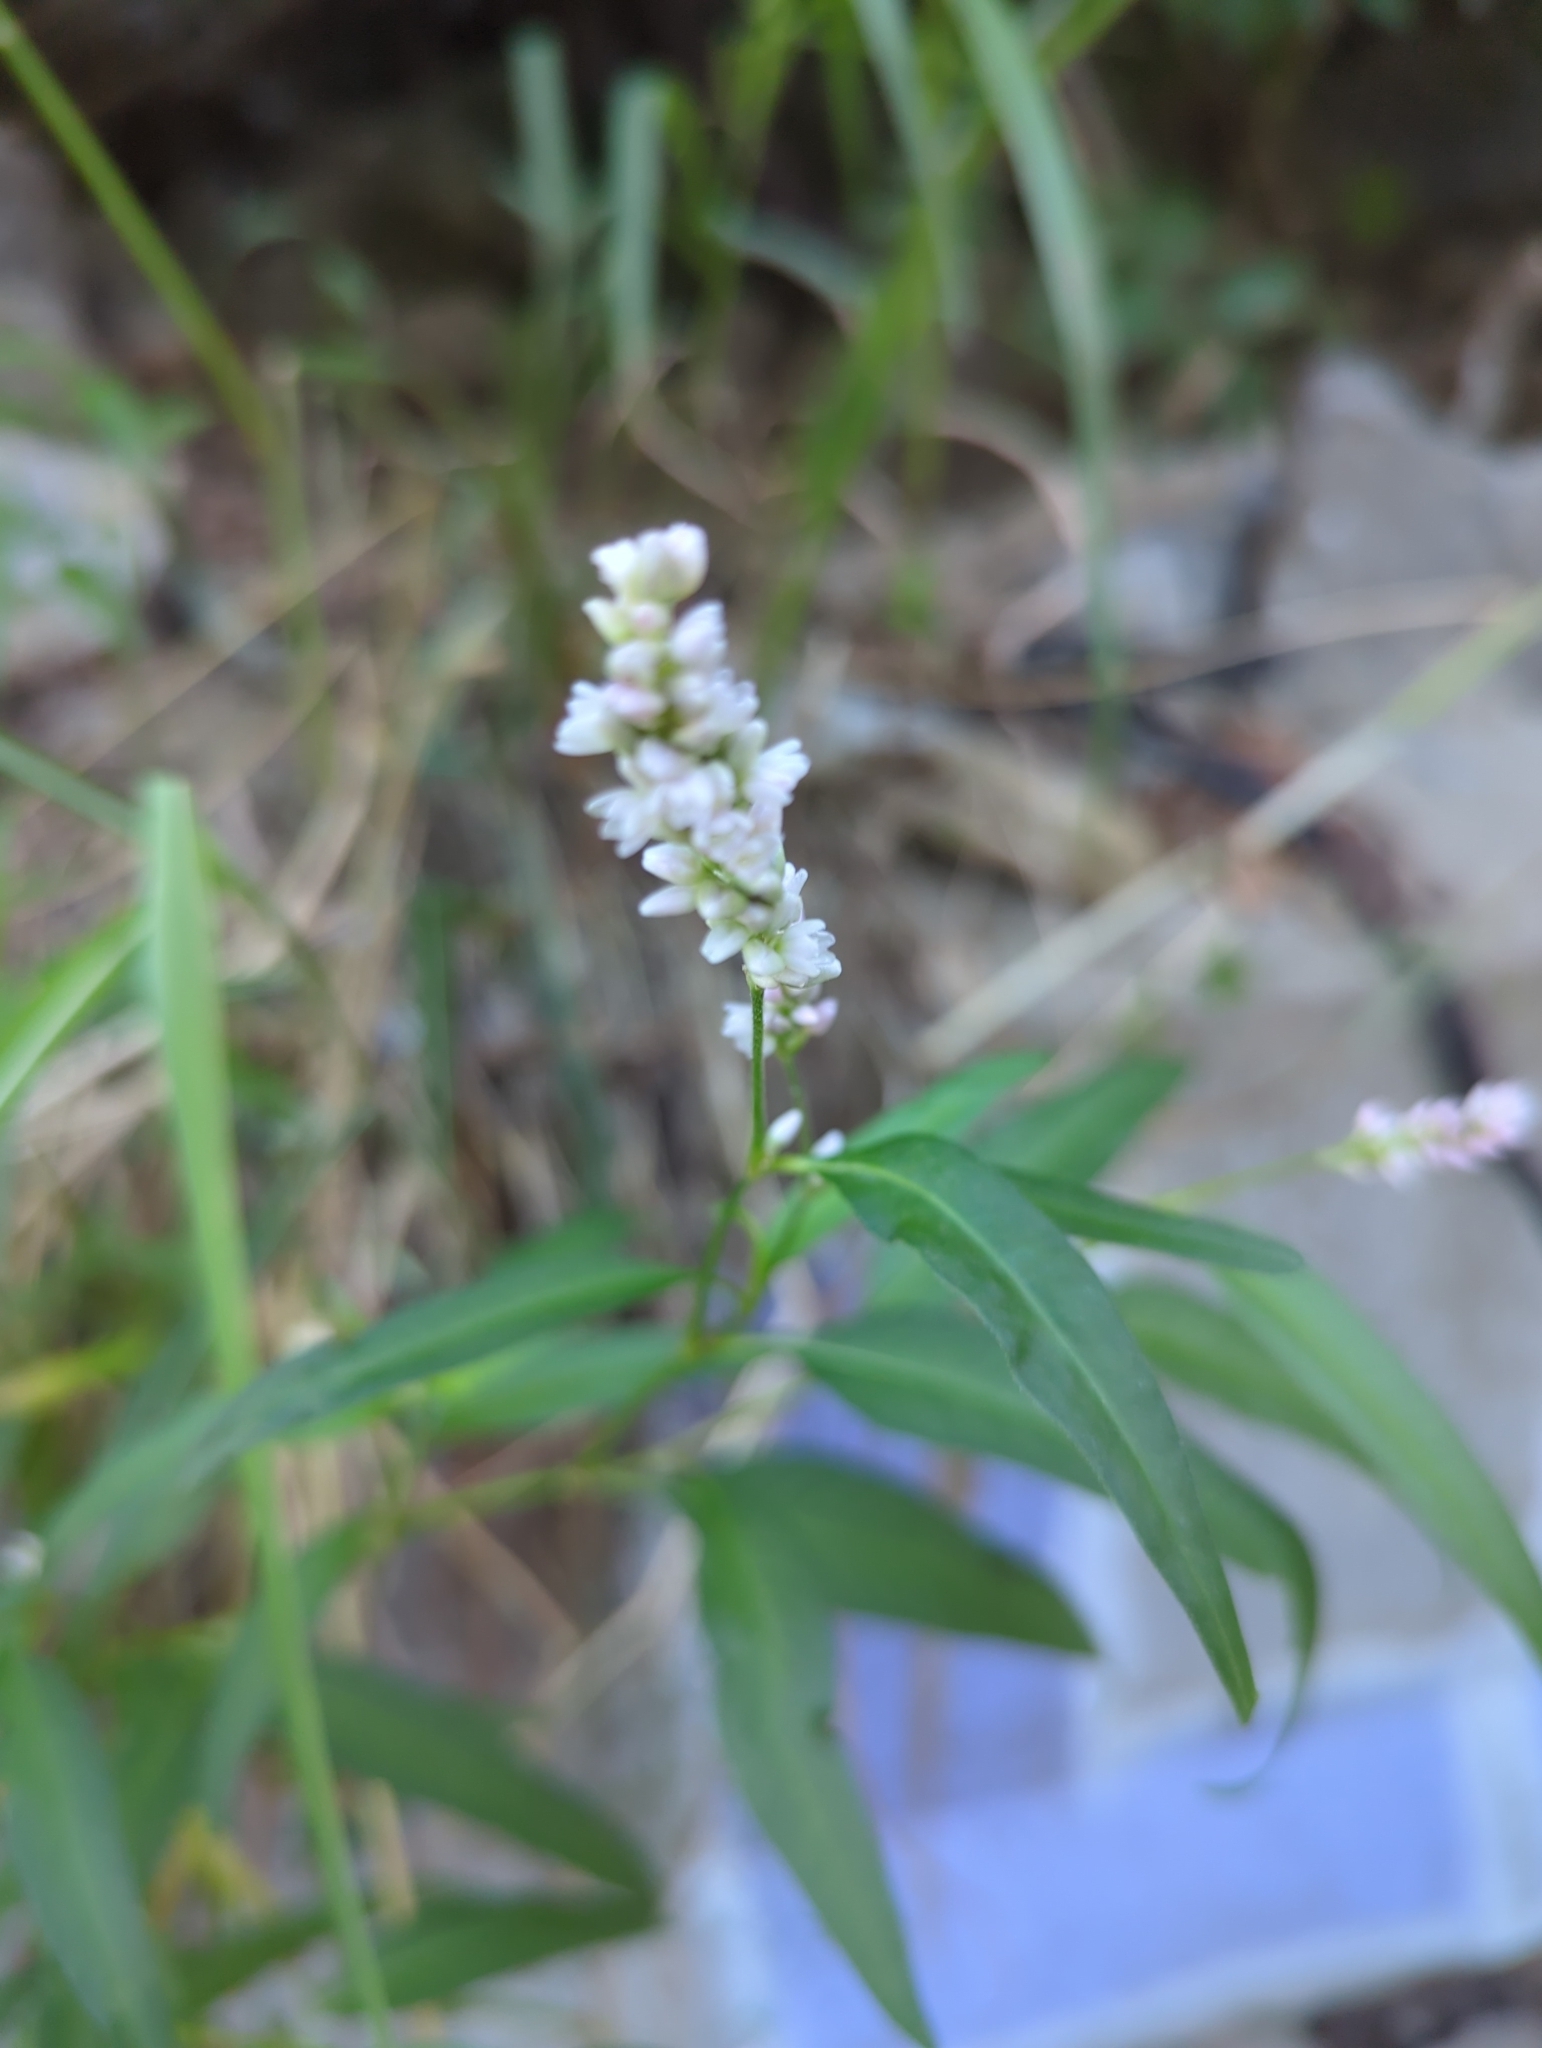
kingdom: Plantae
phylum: Tracheophyta
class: Magnoliopsida
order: Caryophyllales
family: Polygonaceae
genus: Persicaria
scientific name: Persicaria pensylvanica
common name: Pinkweed
